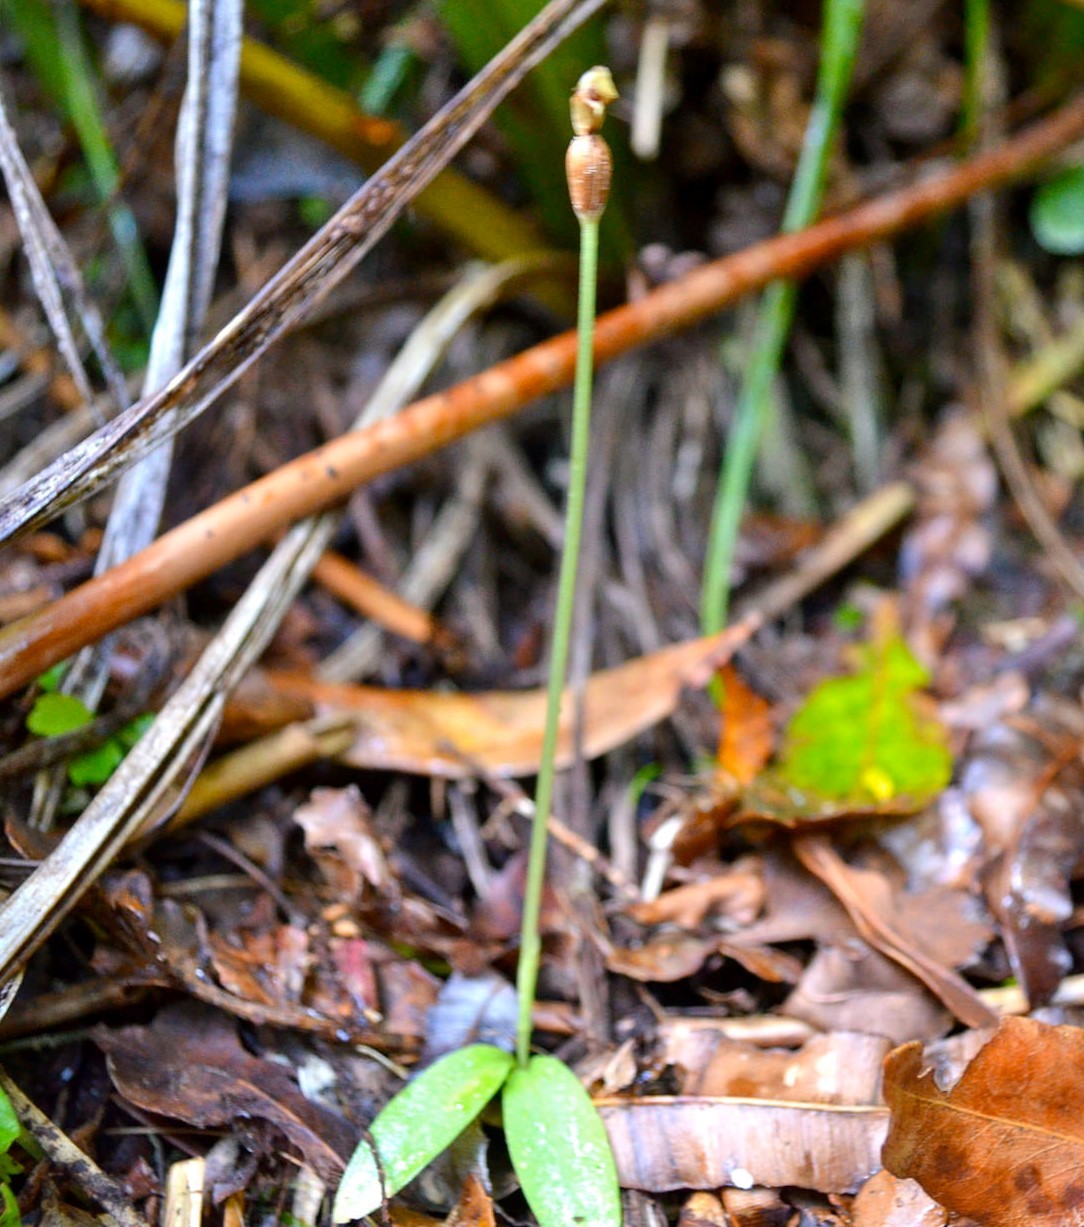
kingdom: Plantae
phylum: Tracheophyta
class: Liliopsida
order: Asparagales
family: Orchidaceae
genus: Chiloglottis
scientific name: Chiloglottis cornuta
